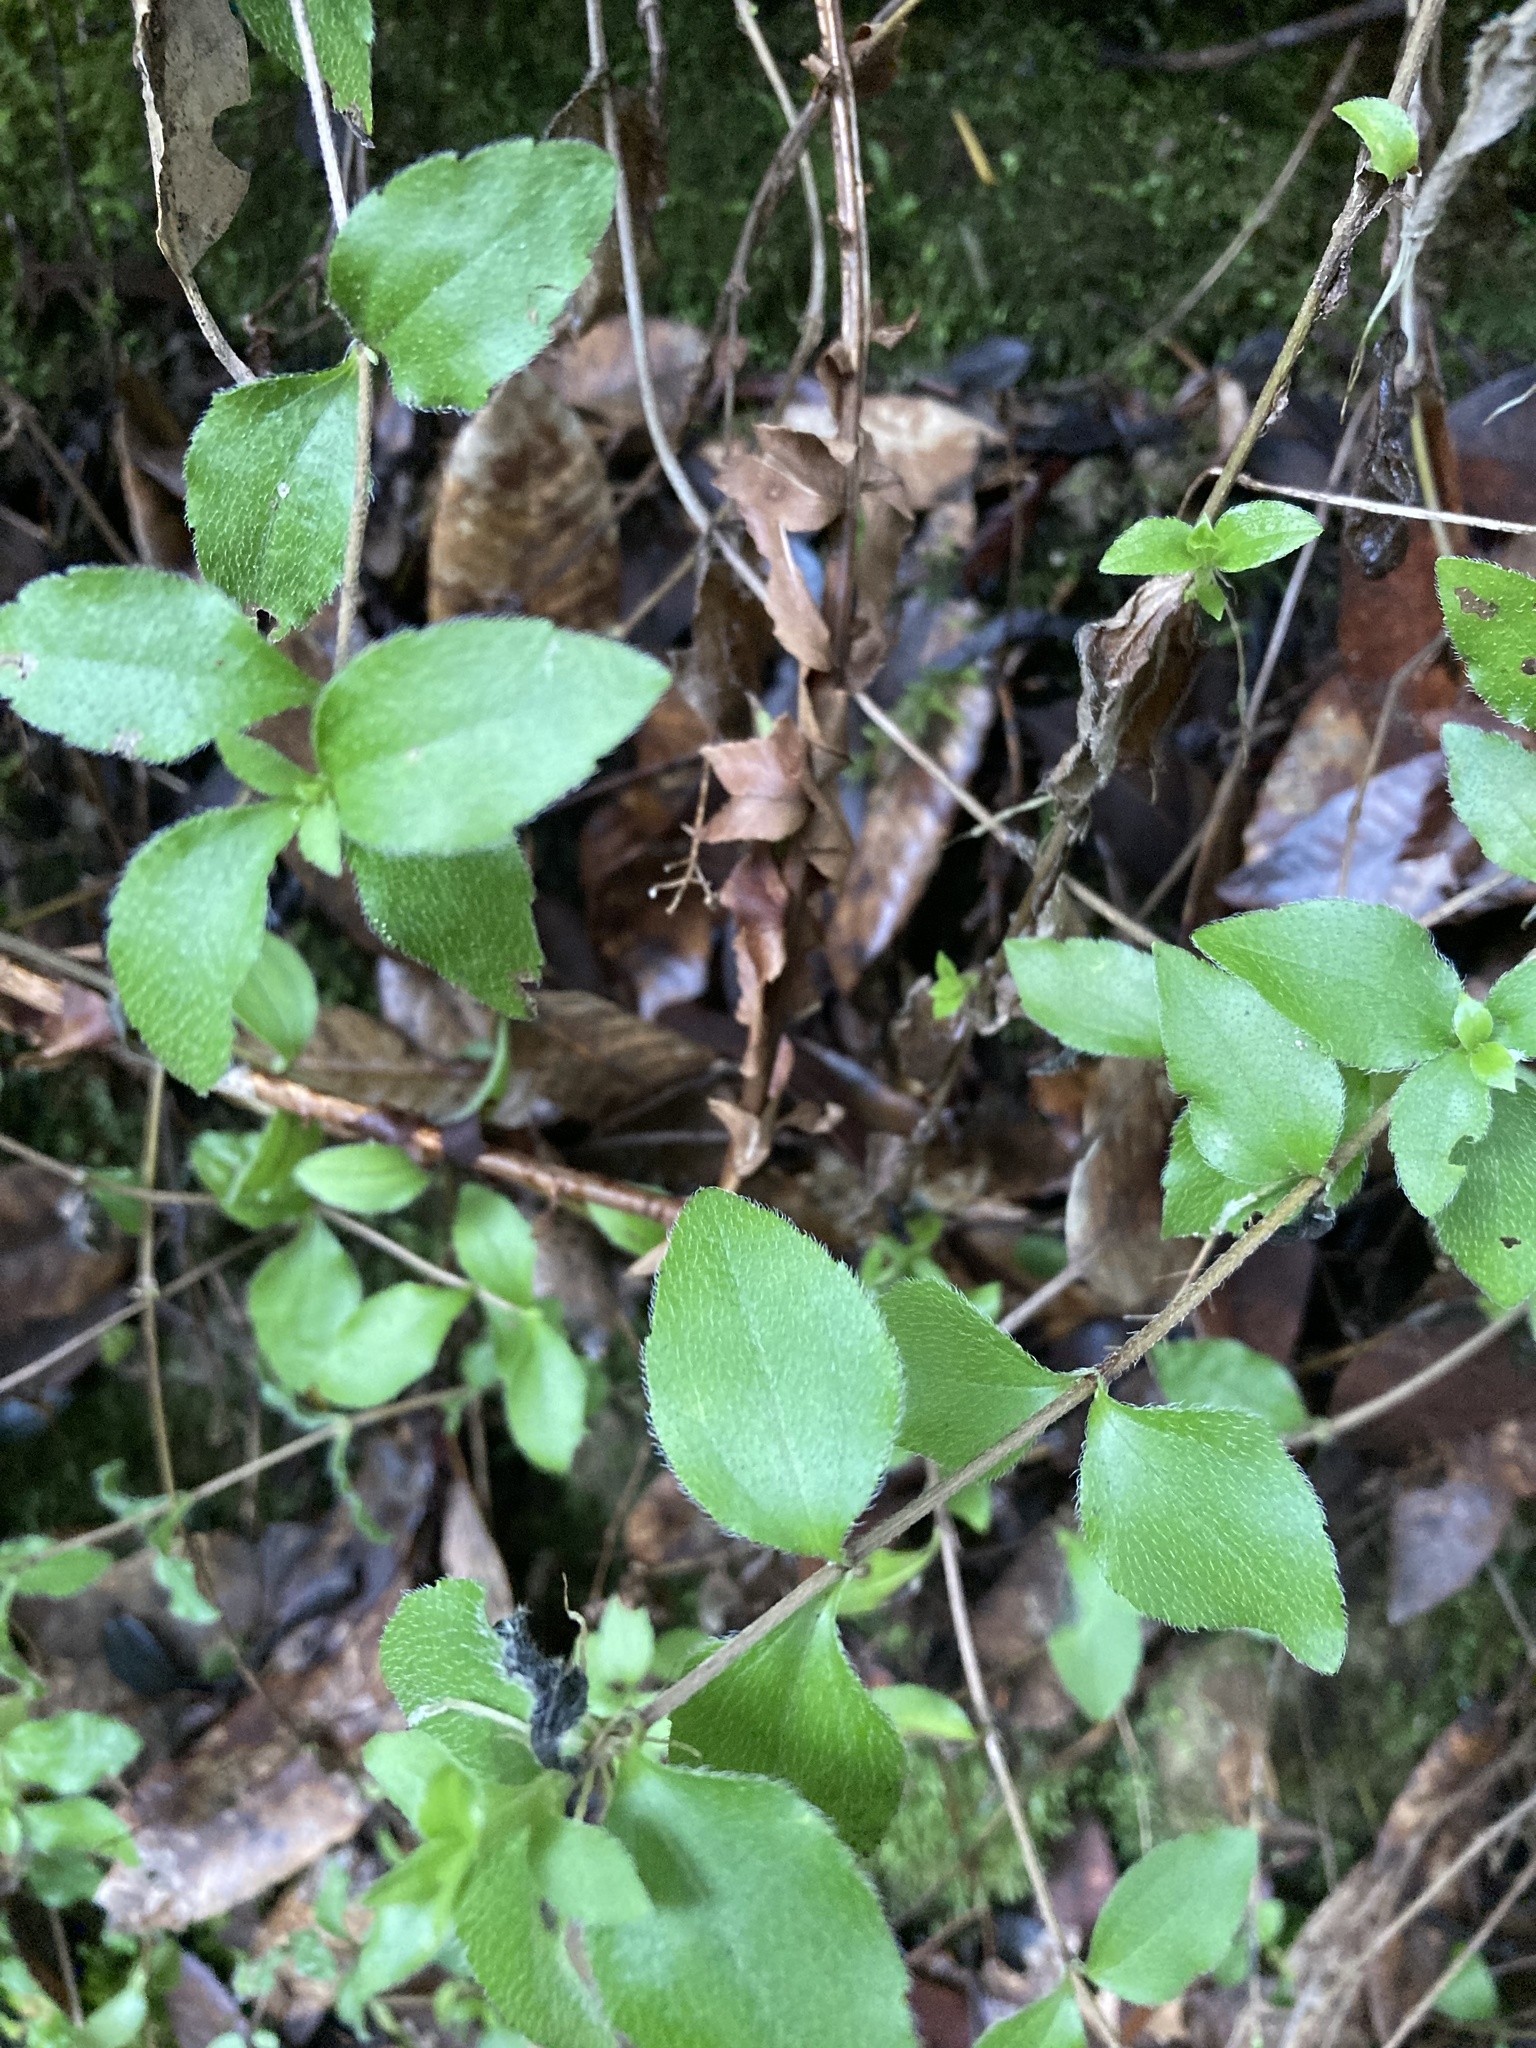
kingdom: Plantae
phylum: Tracheophyta
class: Magnoliopsida
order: Cornales
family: Hydrangeaceae
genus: Whipplea
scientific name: Whipplea modesta
